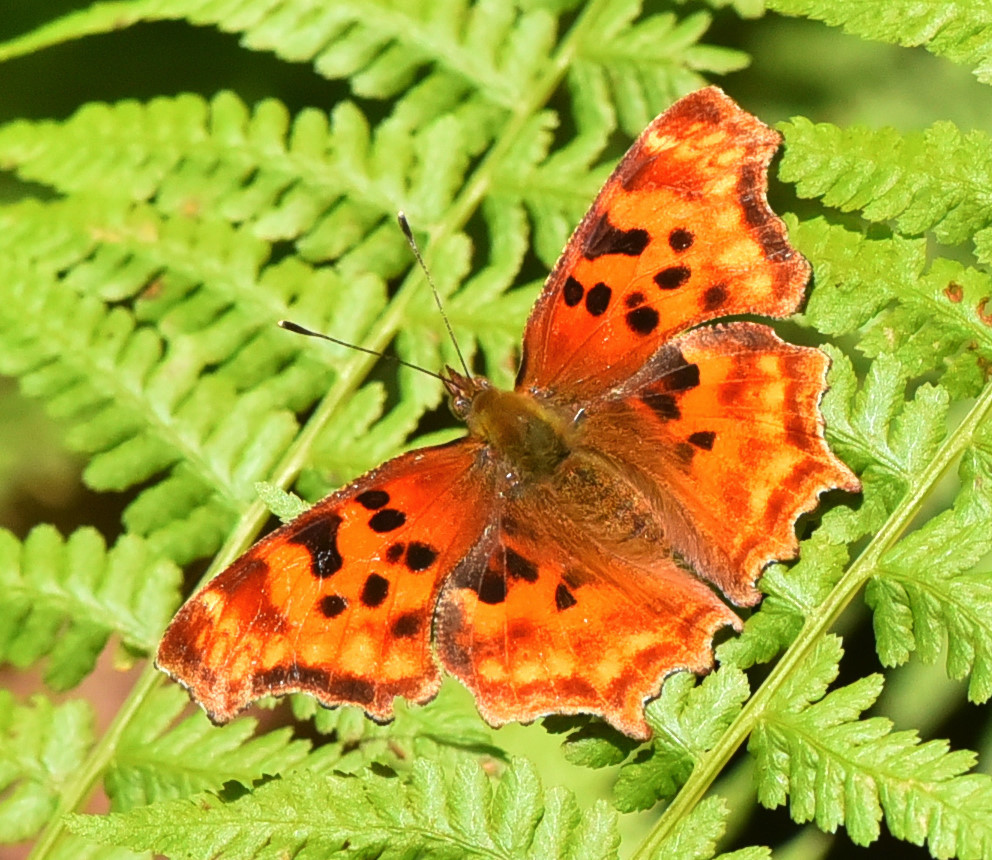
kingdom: Animalia
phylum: Arthropoda
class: Insecta
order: Lepidoptera
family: Nymphalidae
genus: Polygonia
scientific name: Polygonia satyrus
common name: Satyr angle wing
